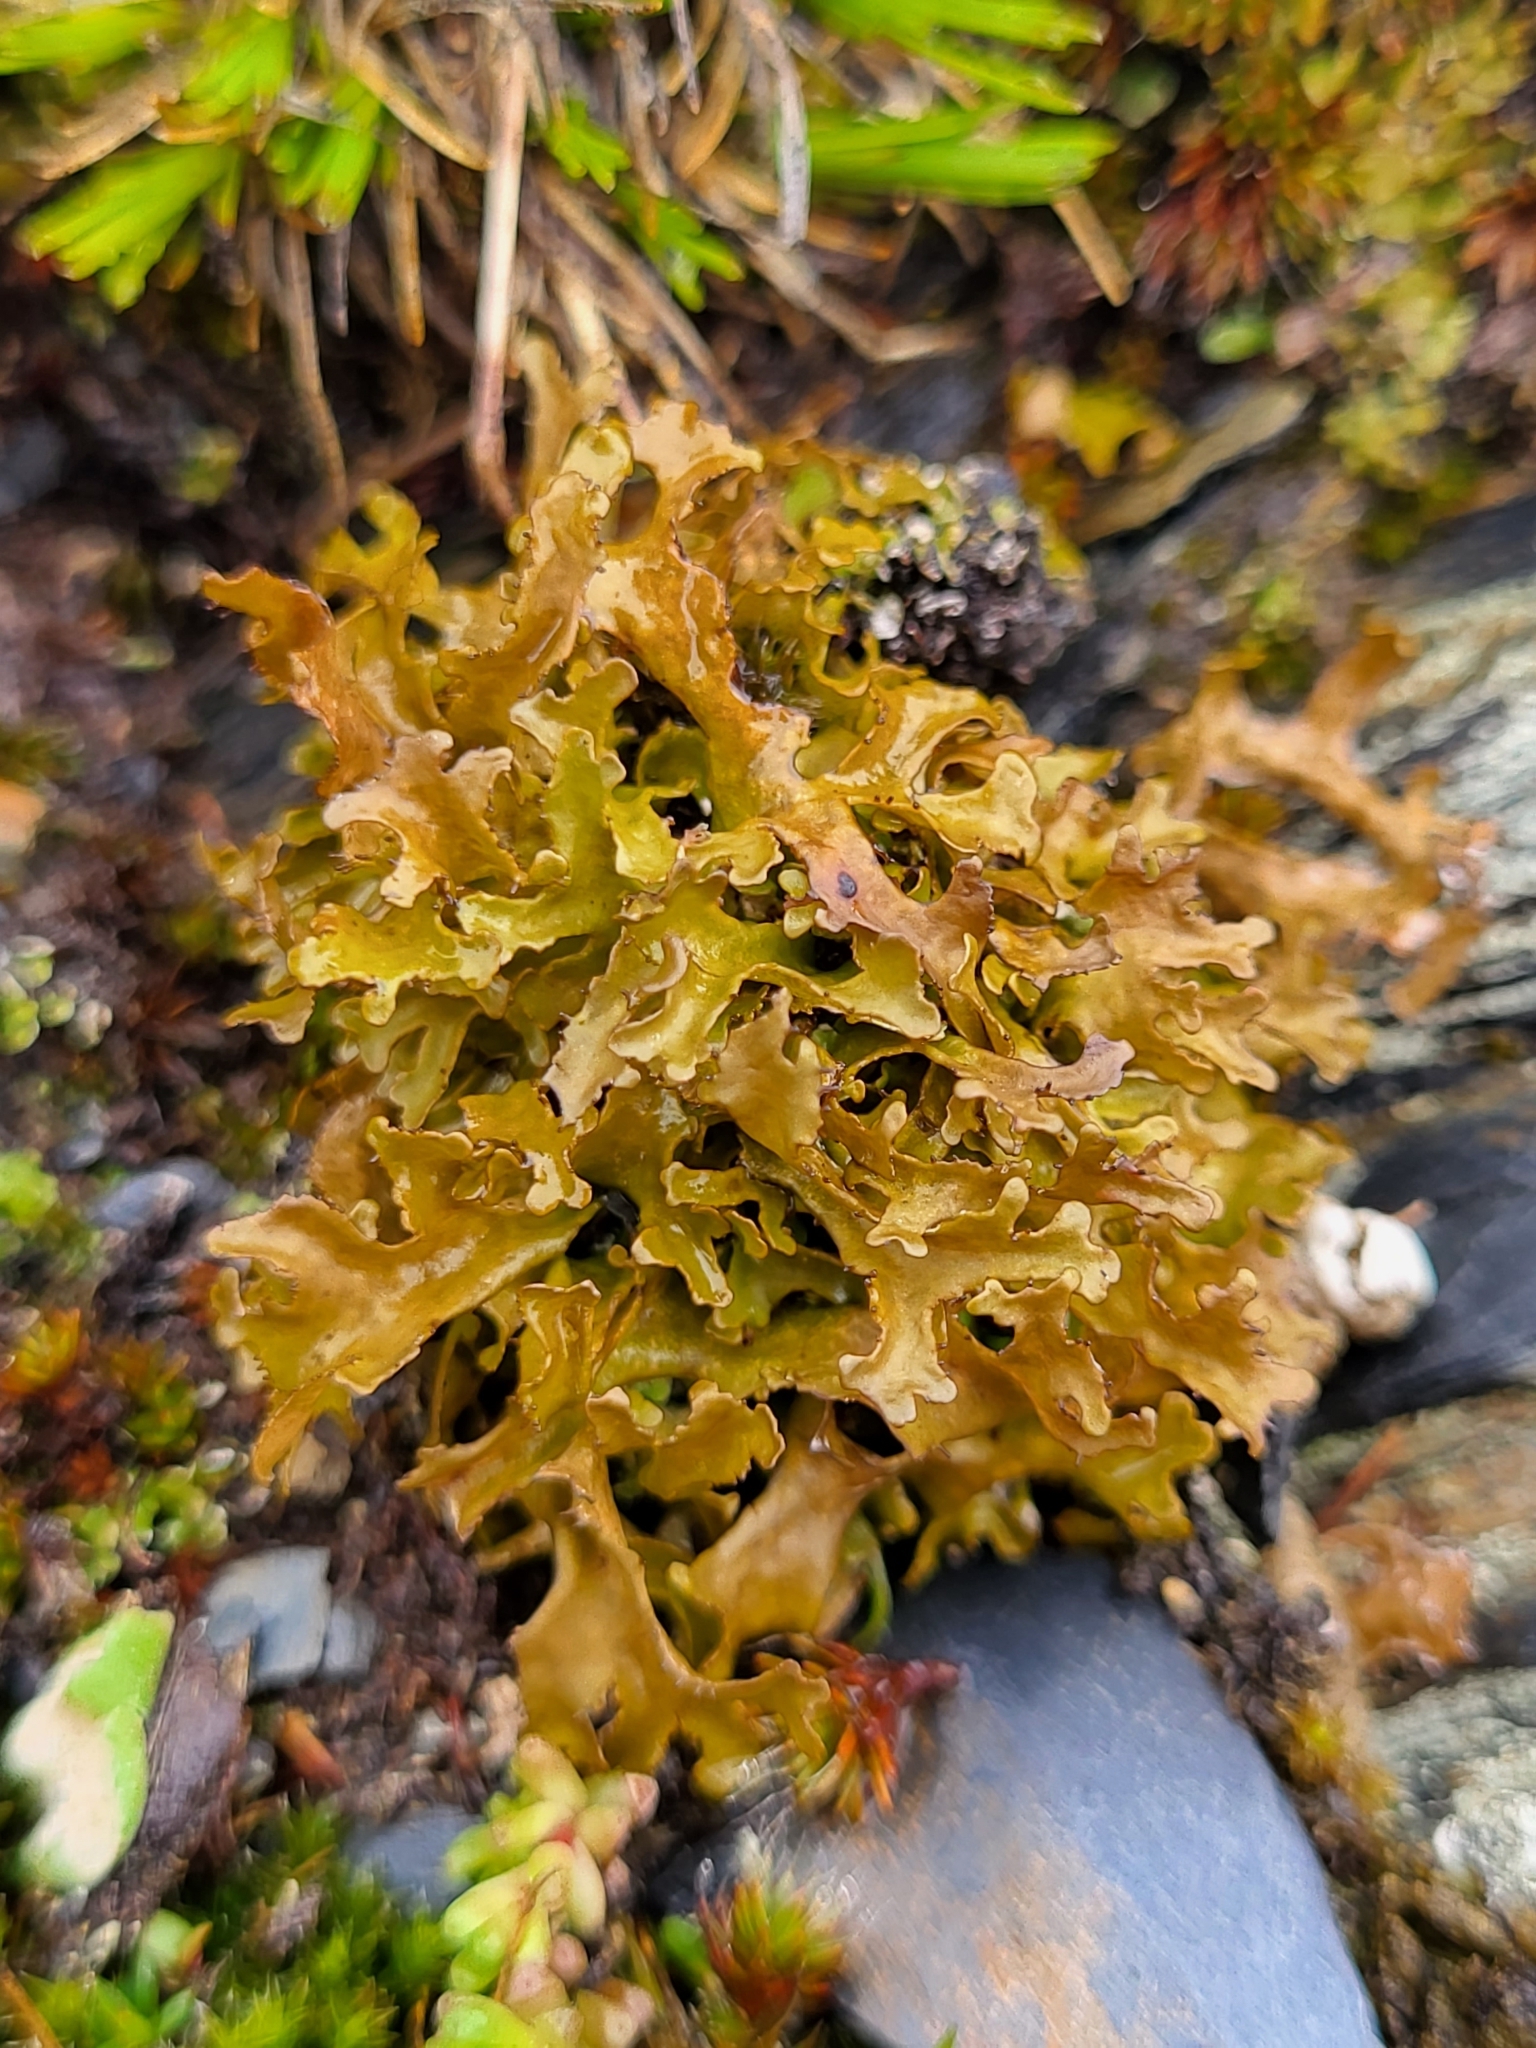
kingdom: Fungi
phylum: Ascomycota
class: Lecanoromycetes
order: Lecanorales
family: Parmeliaceae
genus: Cetraria
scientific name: Cetraria islandica
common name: Iceland lichen
